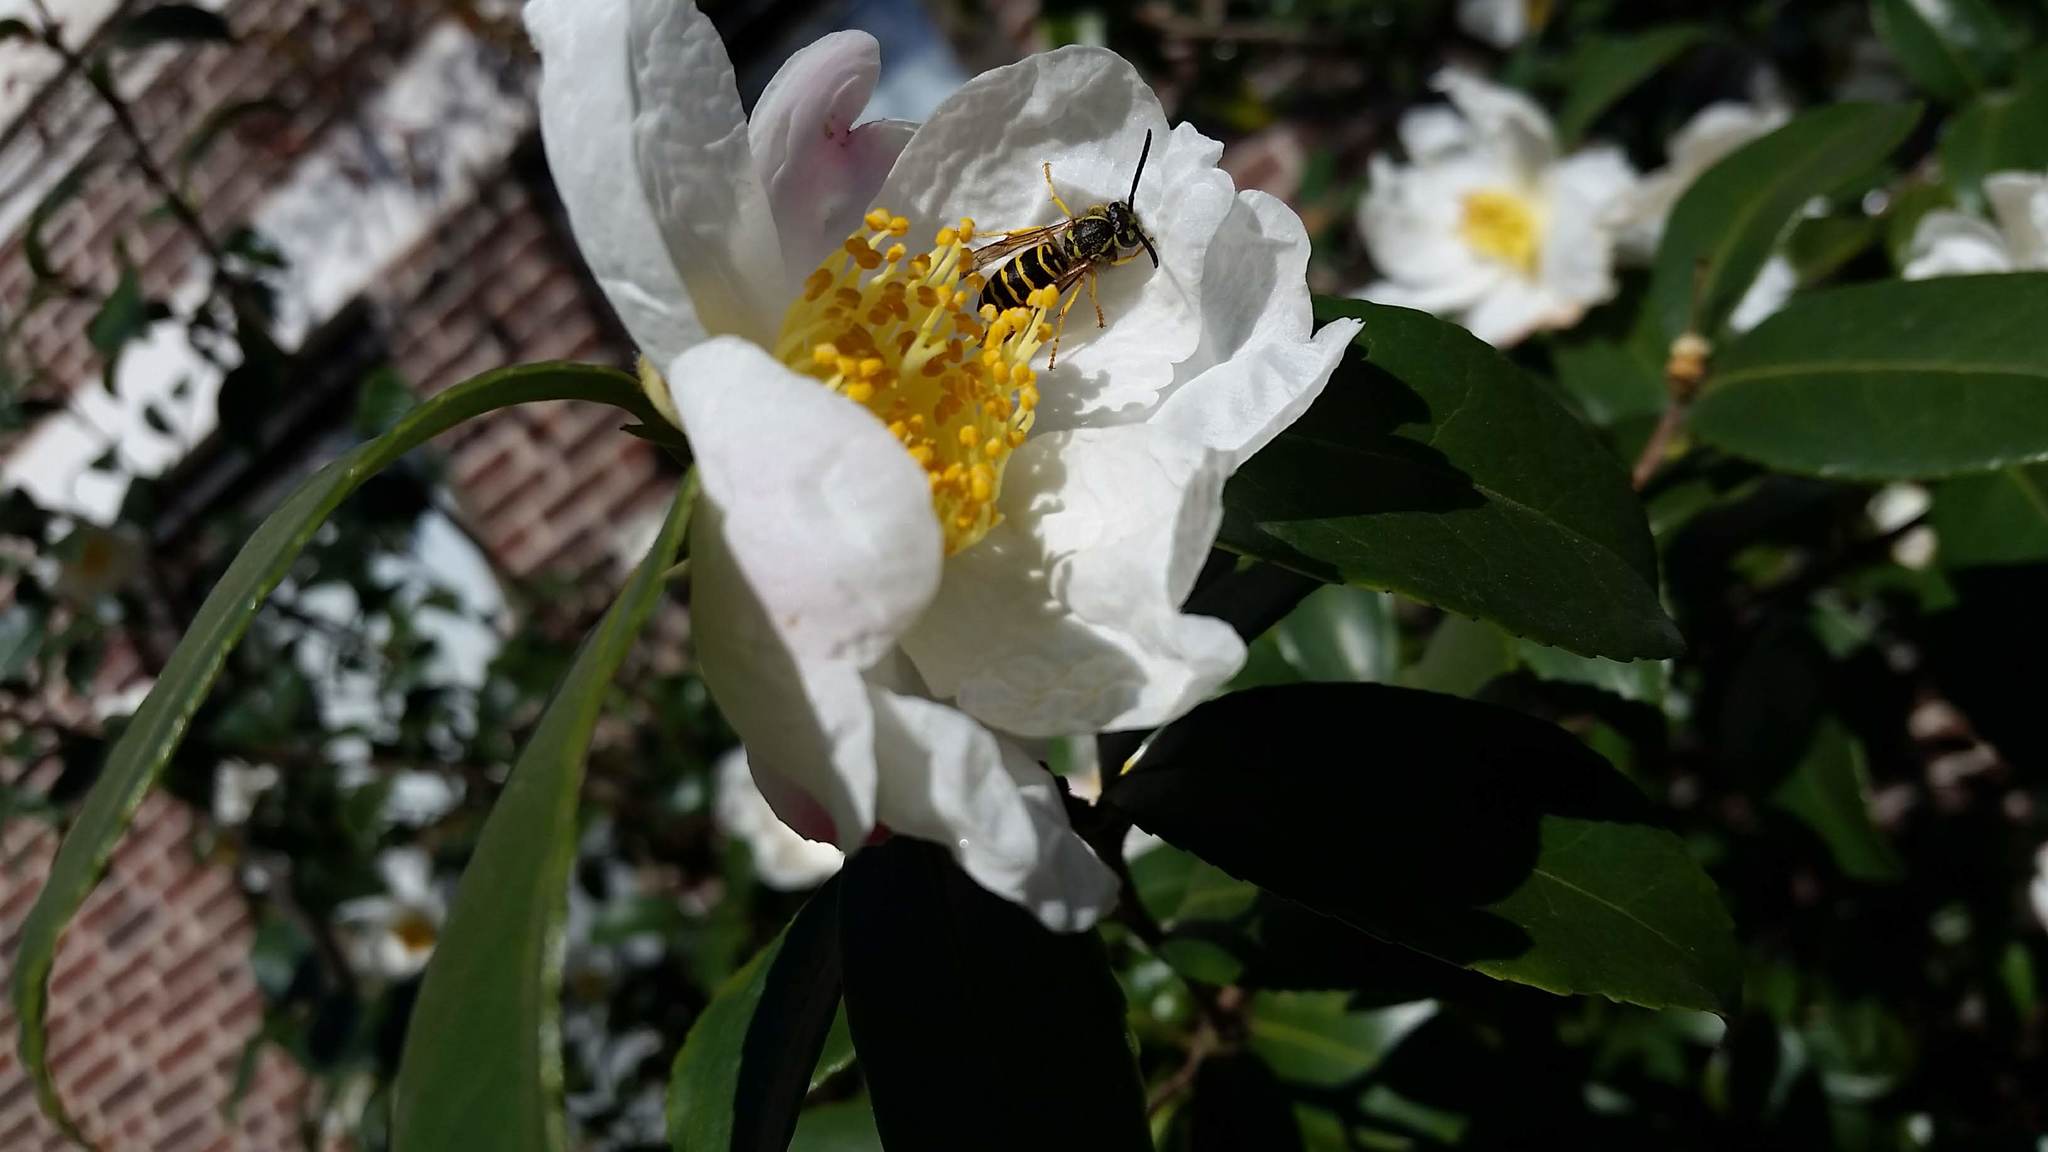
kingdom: Animalia
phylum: Arthropoda
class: Insecta
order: Hymenoptera
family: Vespidae
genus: Vespula
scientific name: Vespula maculifrons
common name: Eastern yellowjacket
